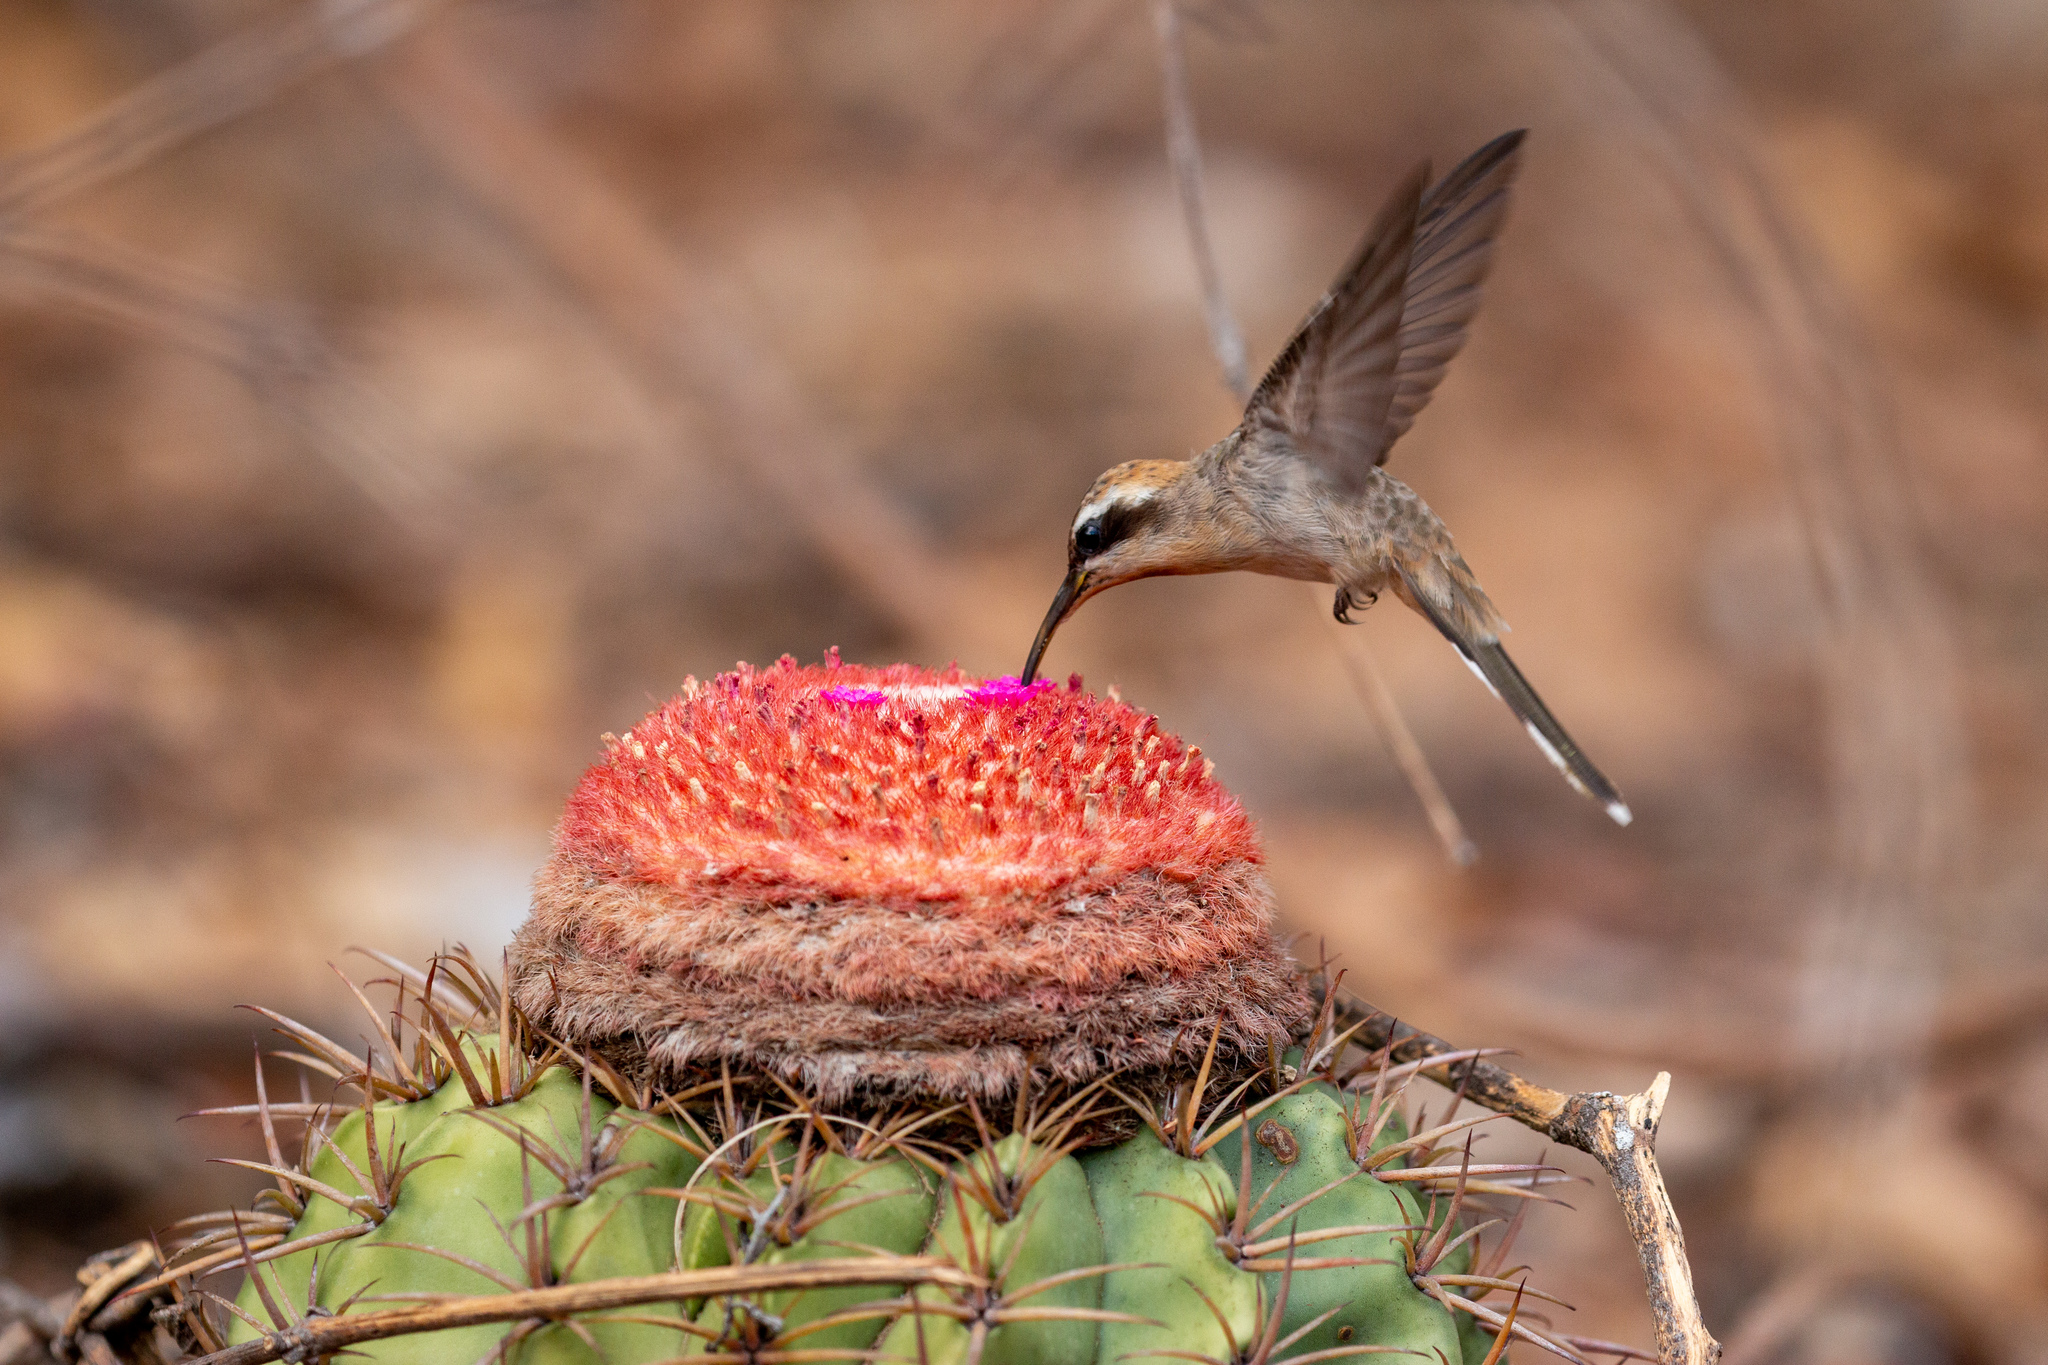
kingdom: Animalia
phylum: Chordata
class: Aves
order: Apodiformes
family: Trochilidae
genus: Anopetia
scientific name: Anopetia gounellei
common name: Broad-tipped hermit
